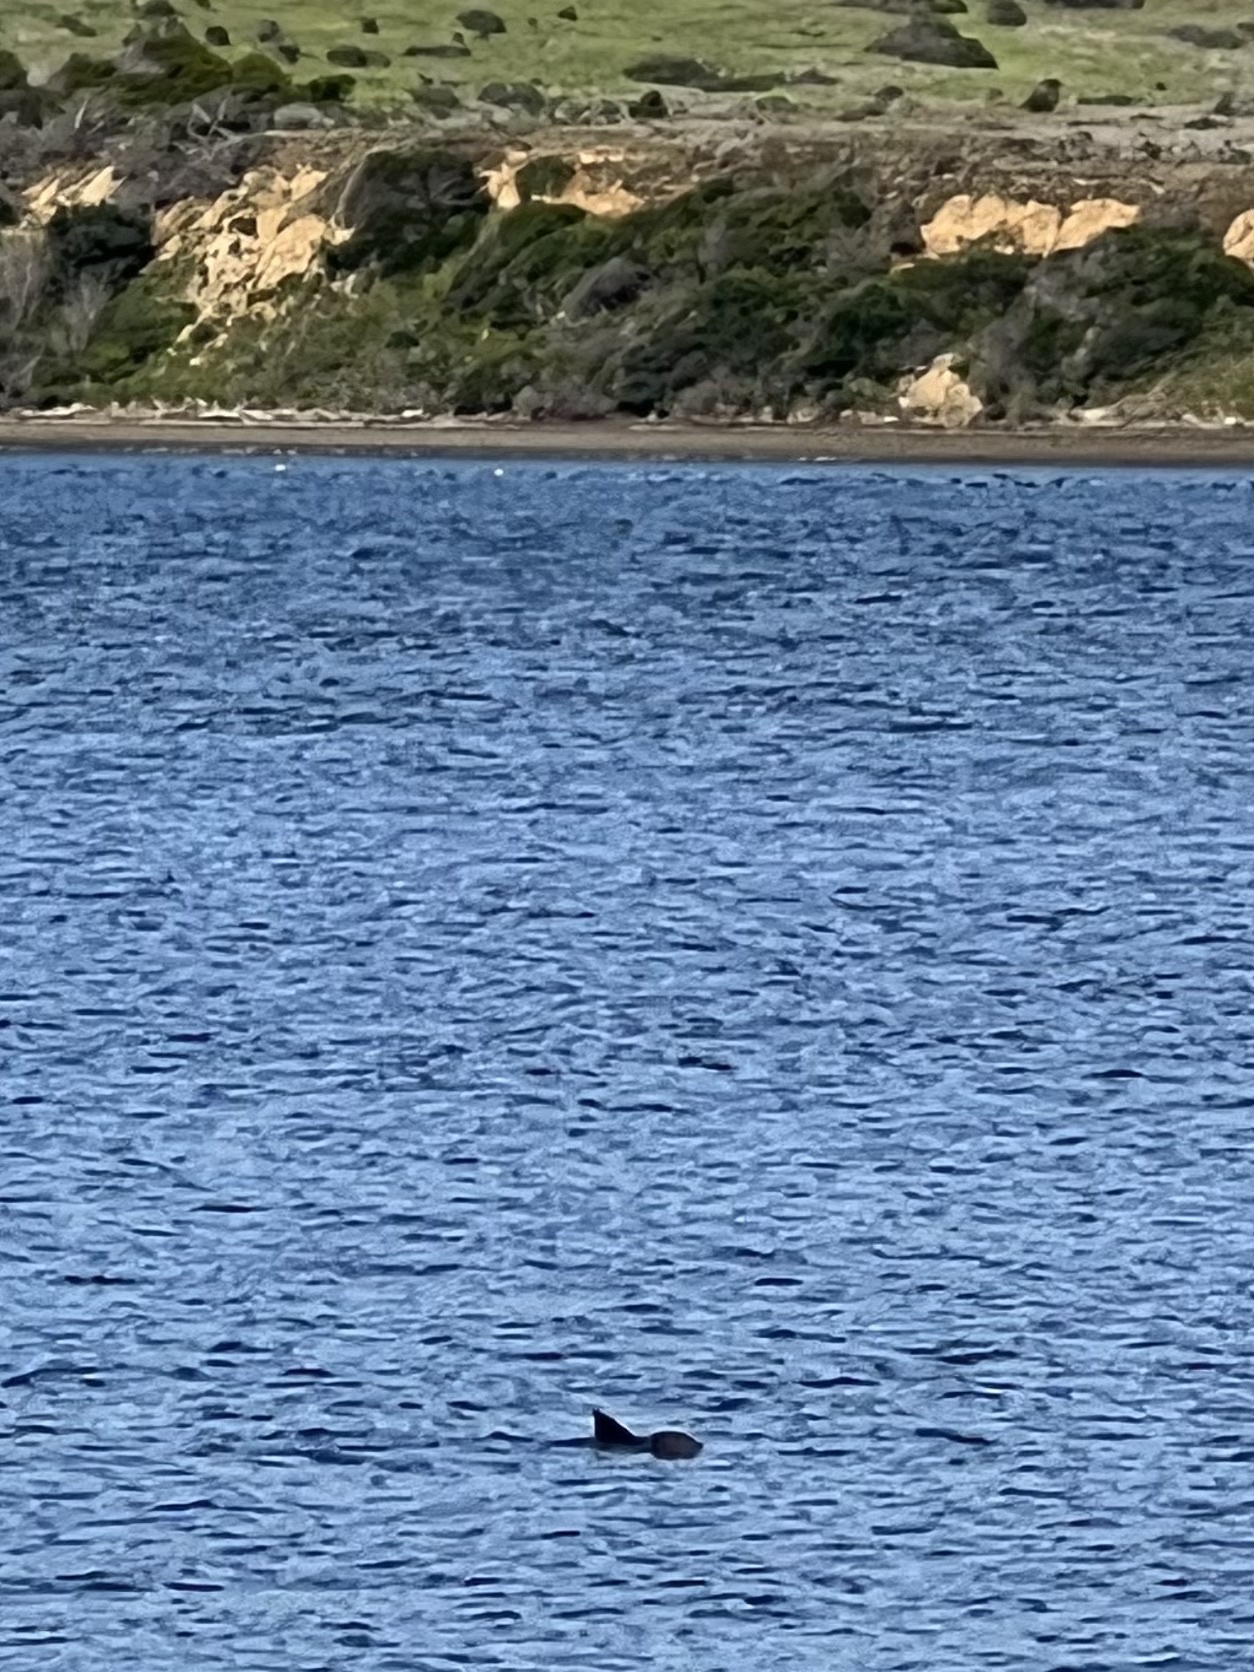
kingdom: Animalia
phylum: Chordata
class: Elasmobranchii
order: Myliobatiformes
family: Myliobatidae
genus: Myliobatis
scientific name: Myliobatis californica
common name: Bat ray
